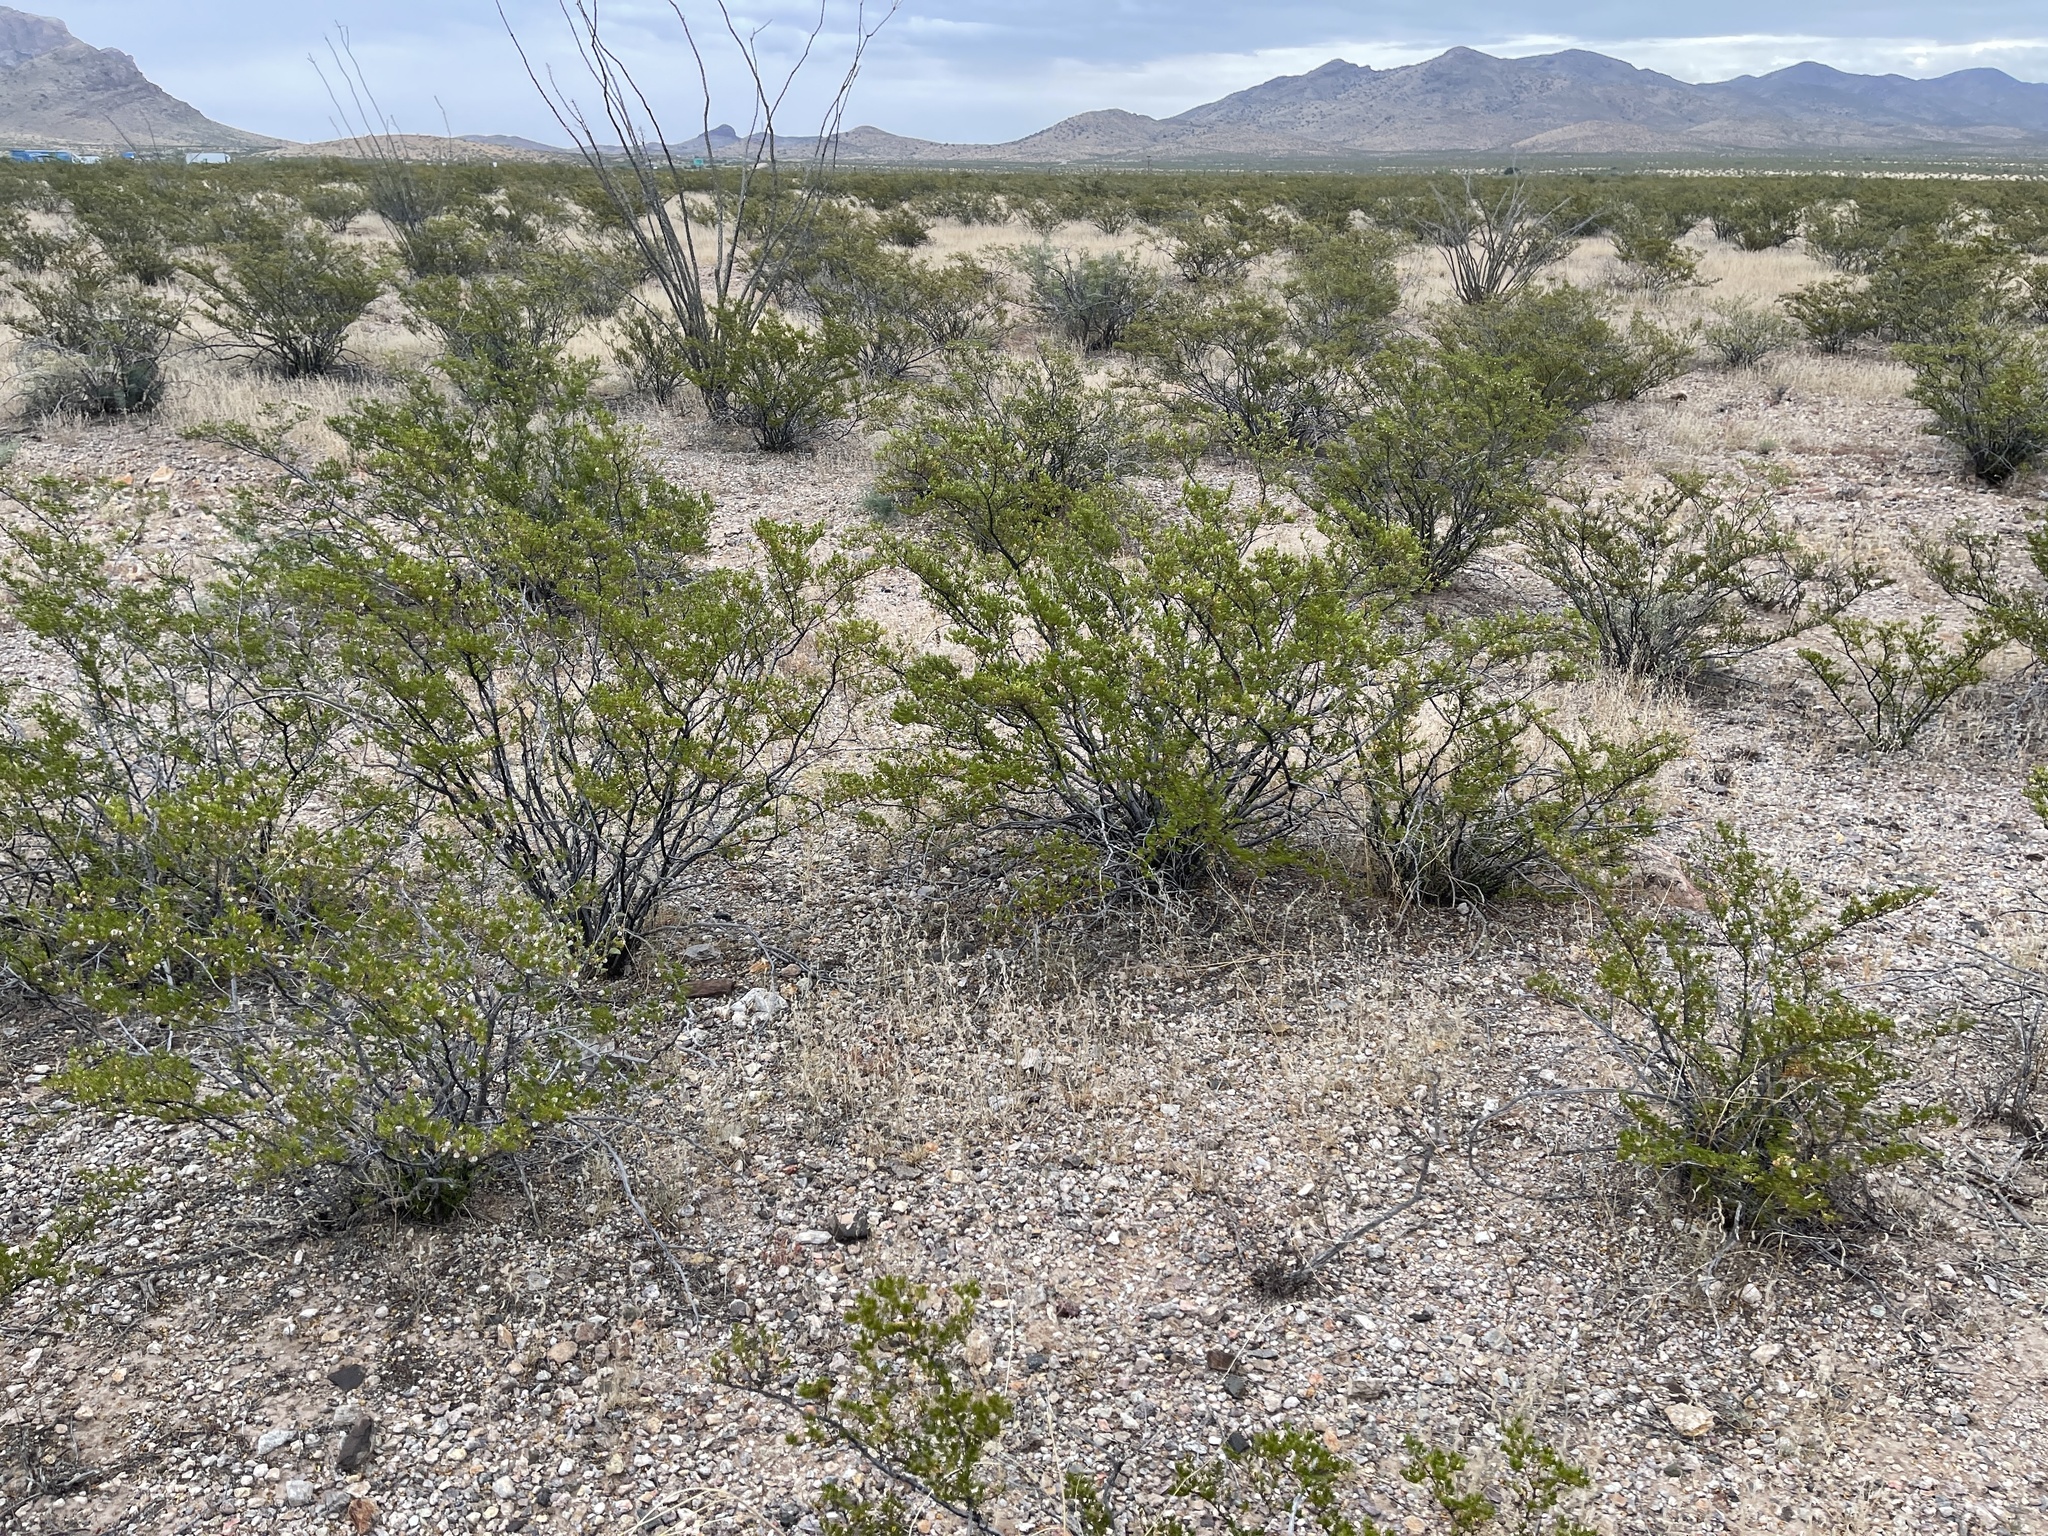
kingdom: Plantae
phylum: Tracheophyta
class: Magnoliopsida
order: Zygophyllales
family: Zygophyllaceae
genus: Larrea
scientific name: Larrea tridentata
